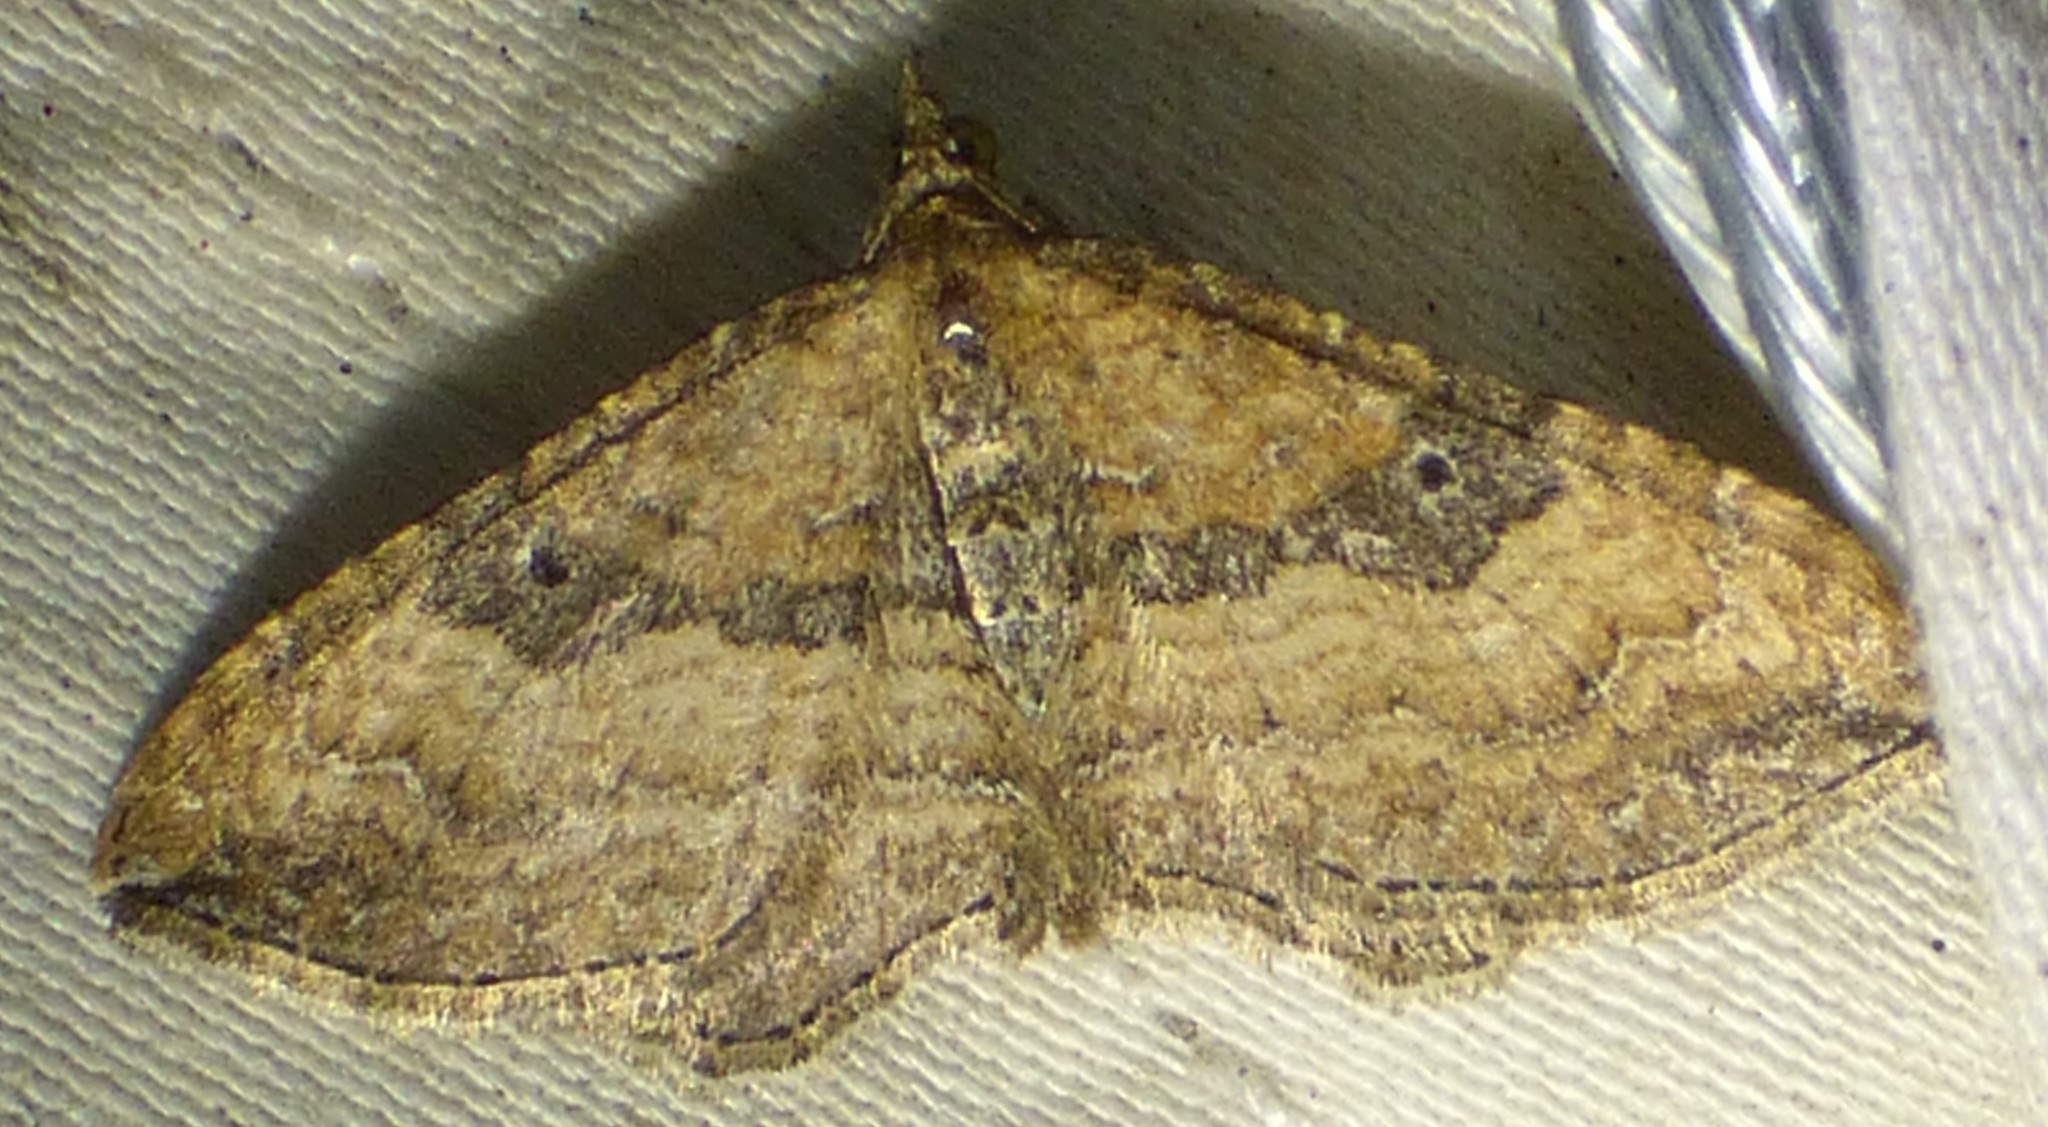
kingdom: Animalia
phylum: Arthropoda
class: Insecta
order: Lepidoptera
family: Geometridae
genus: Orthonama
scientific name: Orthonama obstipata
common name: The gem
